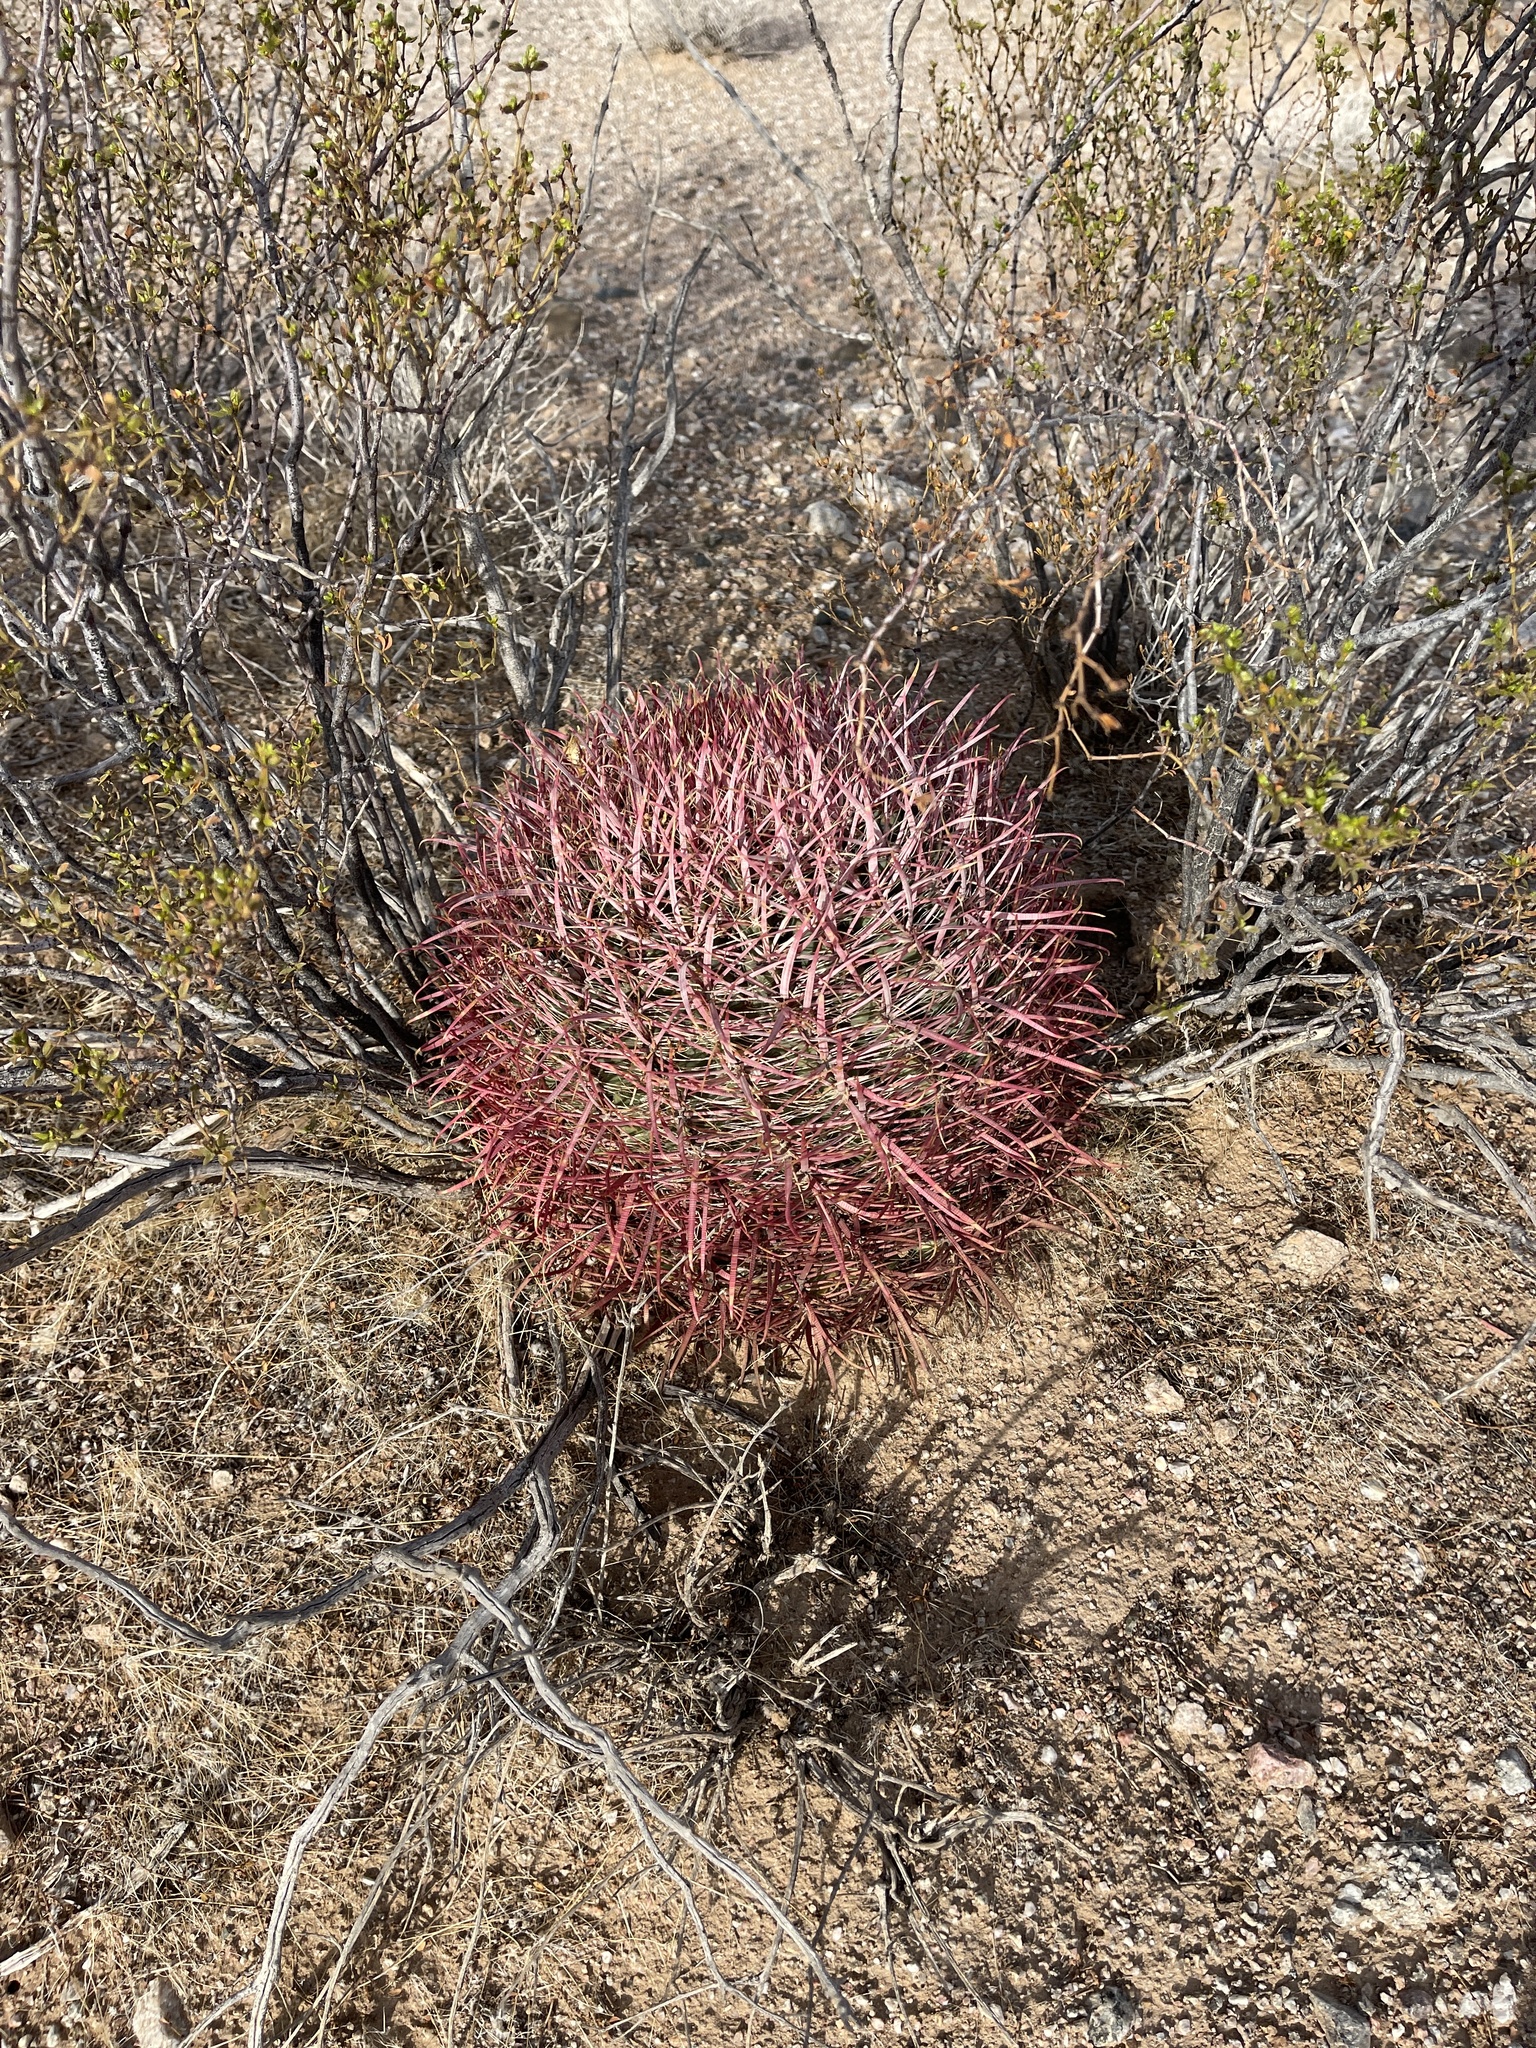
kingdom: Plantae
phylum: Tracheophyta
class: Magnoliopsida
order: Caryophyllales
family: Cactaceae
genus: Ferocactus
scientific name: Ferocactus cylindraceus
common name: California barrel cactus
